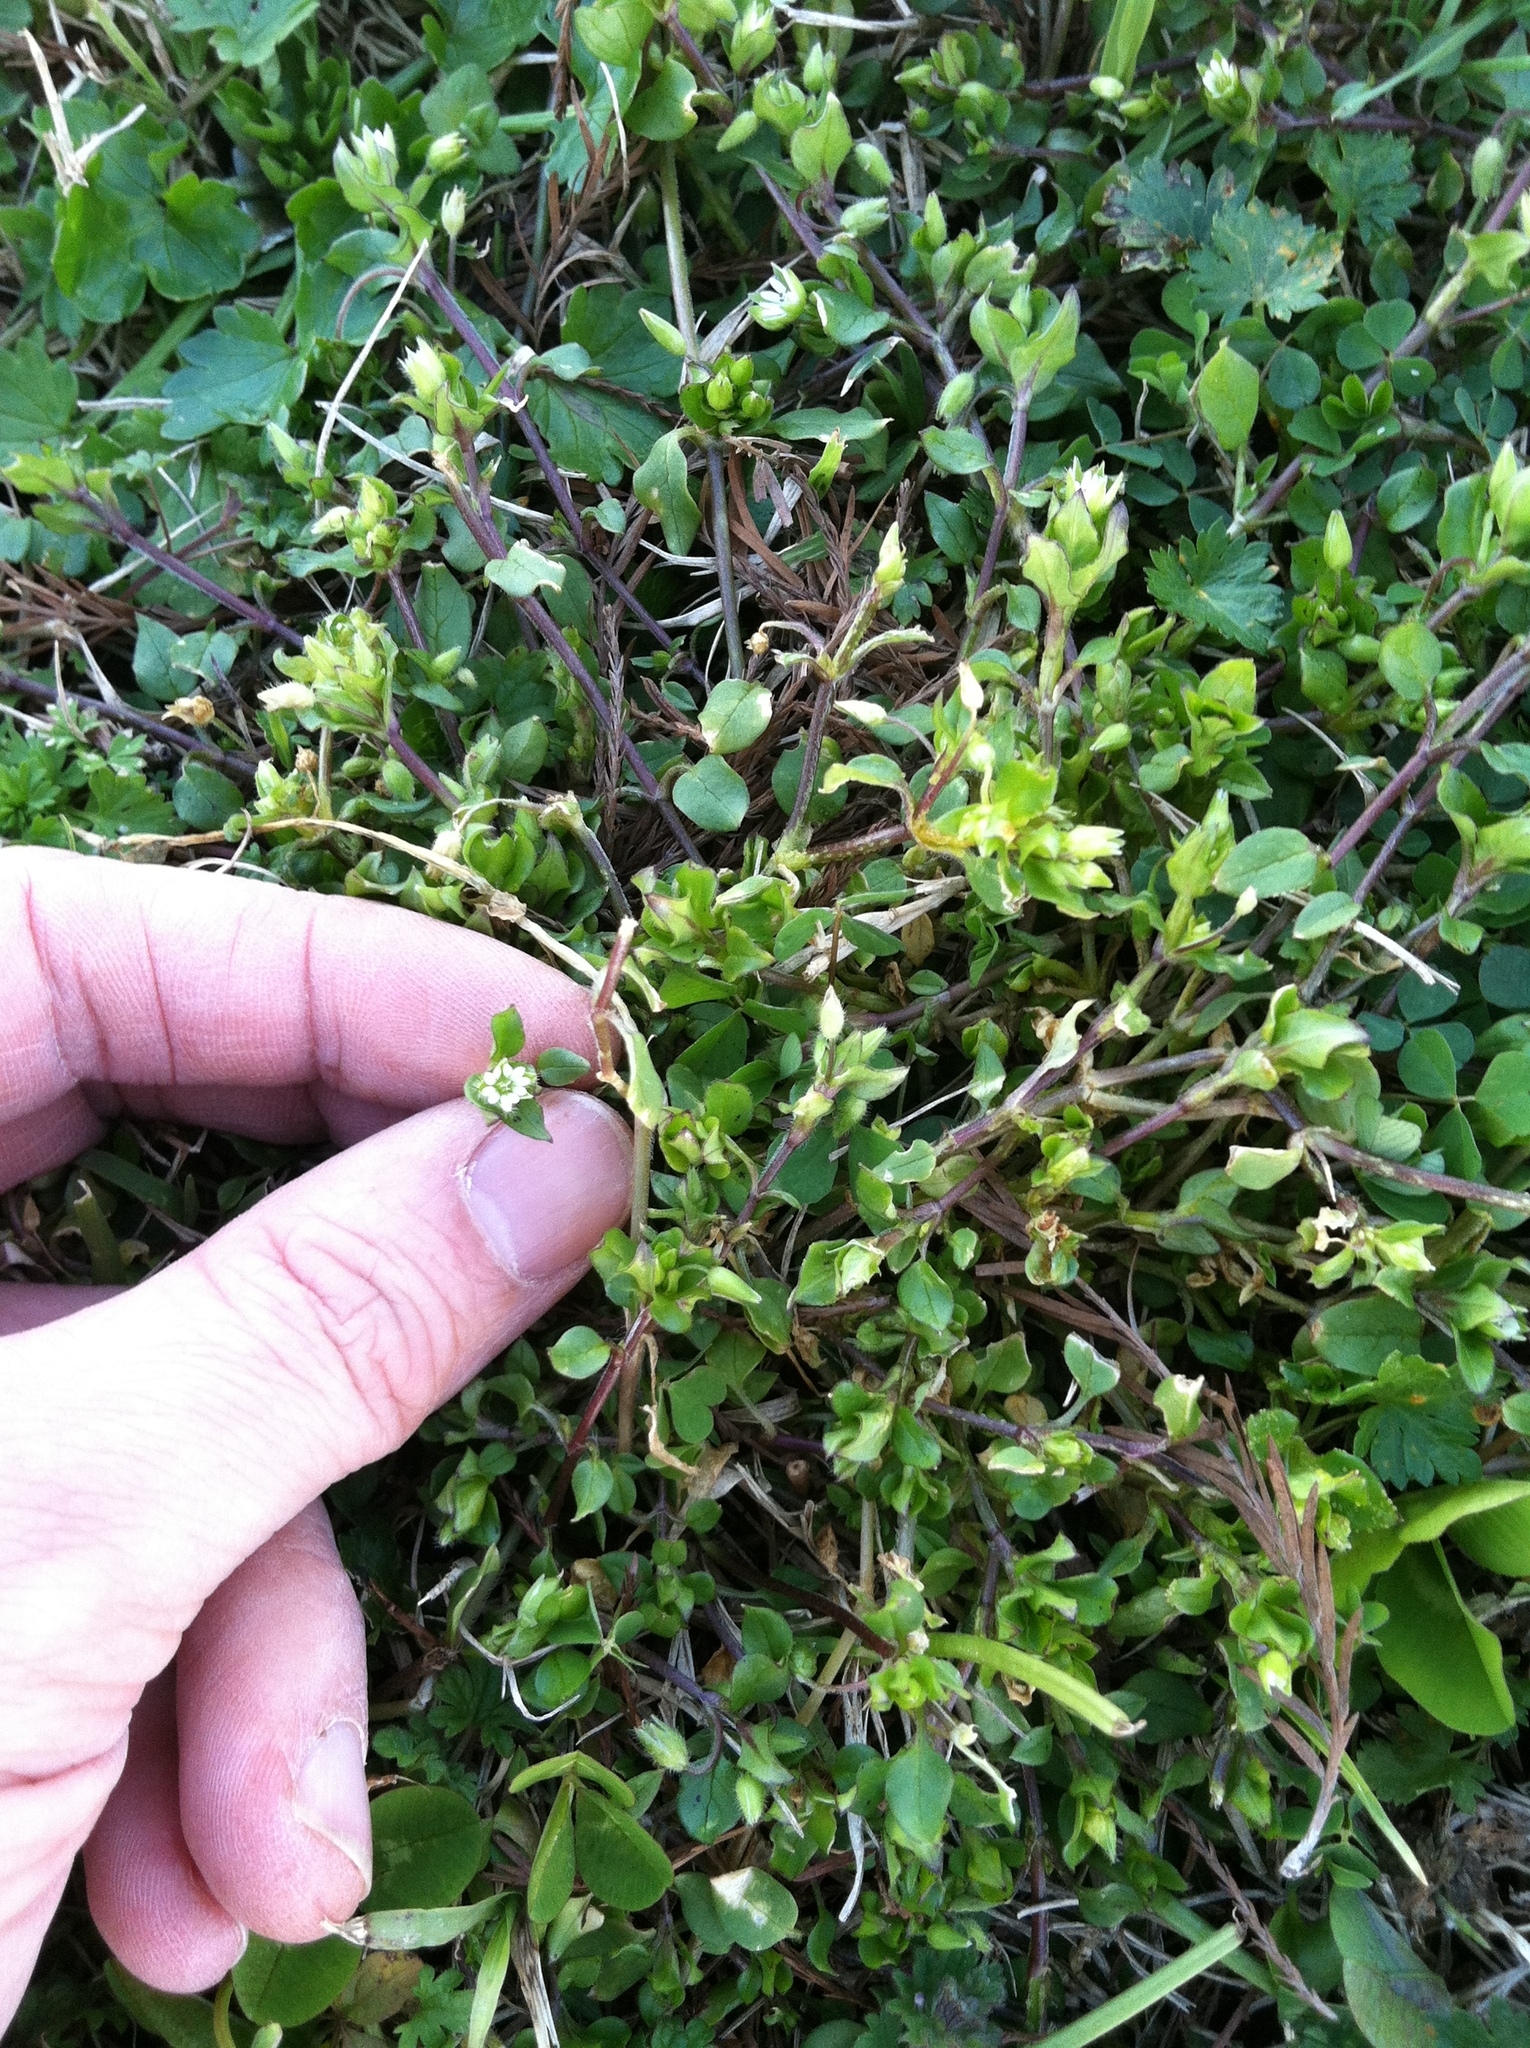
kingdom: Plantae
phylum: Tracheophyta
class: Magnoliopsida
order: Caryophyllales
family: Caryophyllaceae
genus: Stellaria
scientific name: Stellaria media
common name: Common chickweed
